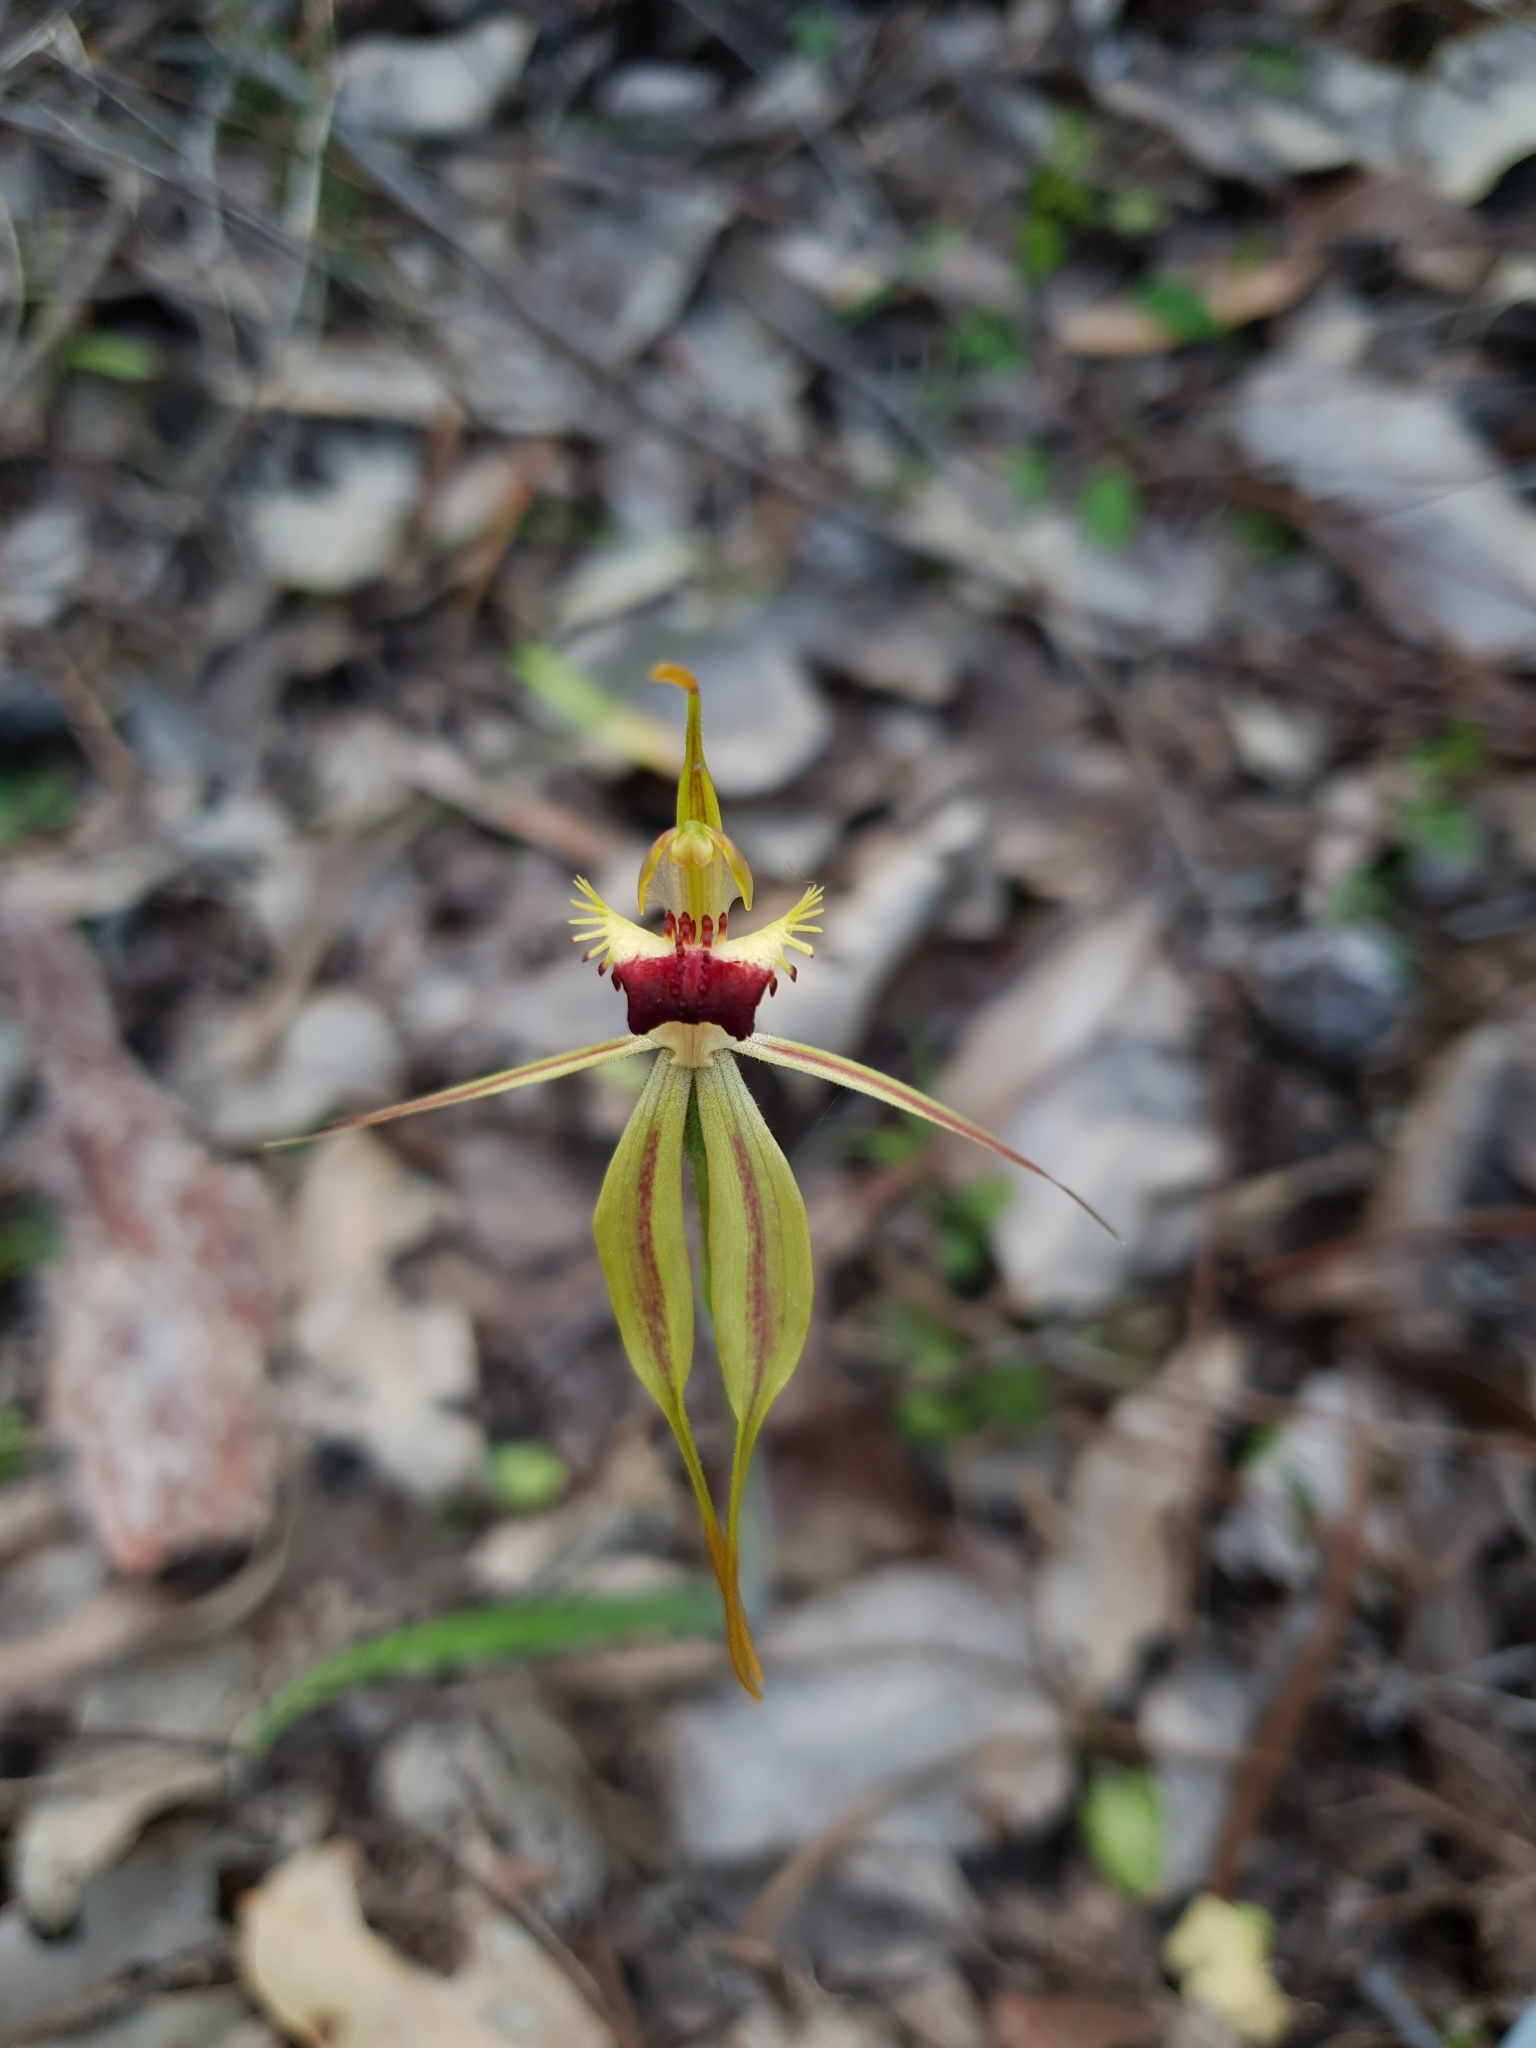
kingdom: Plantae
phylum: Tracheophyta
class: Liliopsida
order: Asparagales
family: Orchidaceae
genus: Caladenia
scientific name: Caladenia rhomboidiformis
